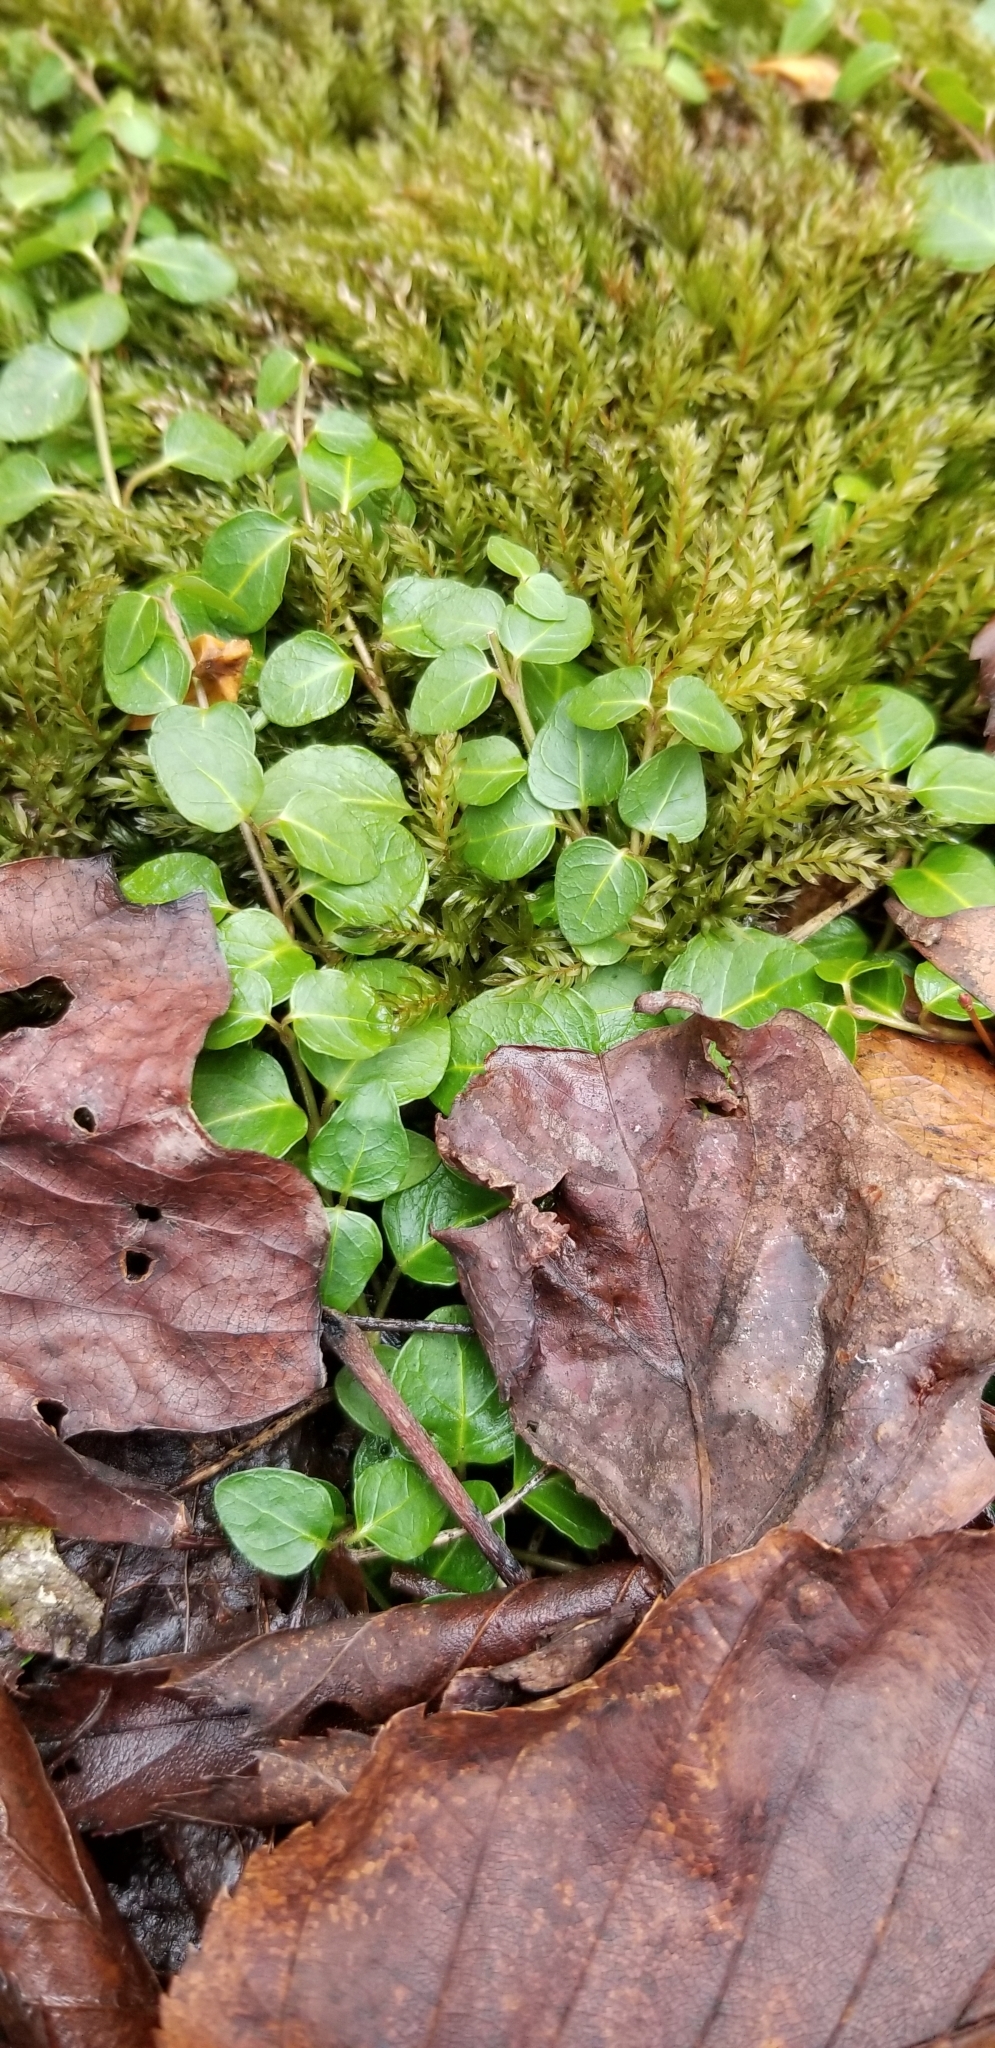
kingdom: Plantae
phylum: Tracheophyta
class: Magnoliopsida
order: Gentianales
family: Rubiaceae
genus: Mitchella
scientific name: Mitchella repens
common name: Partridge-berry
